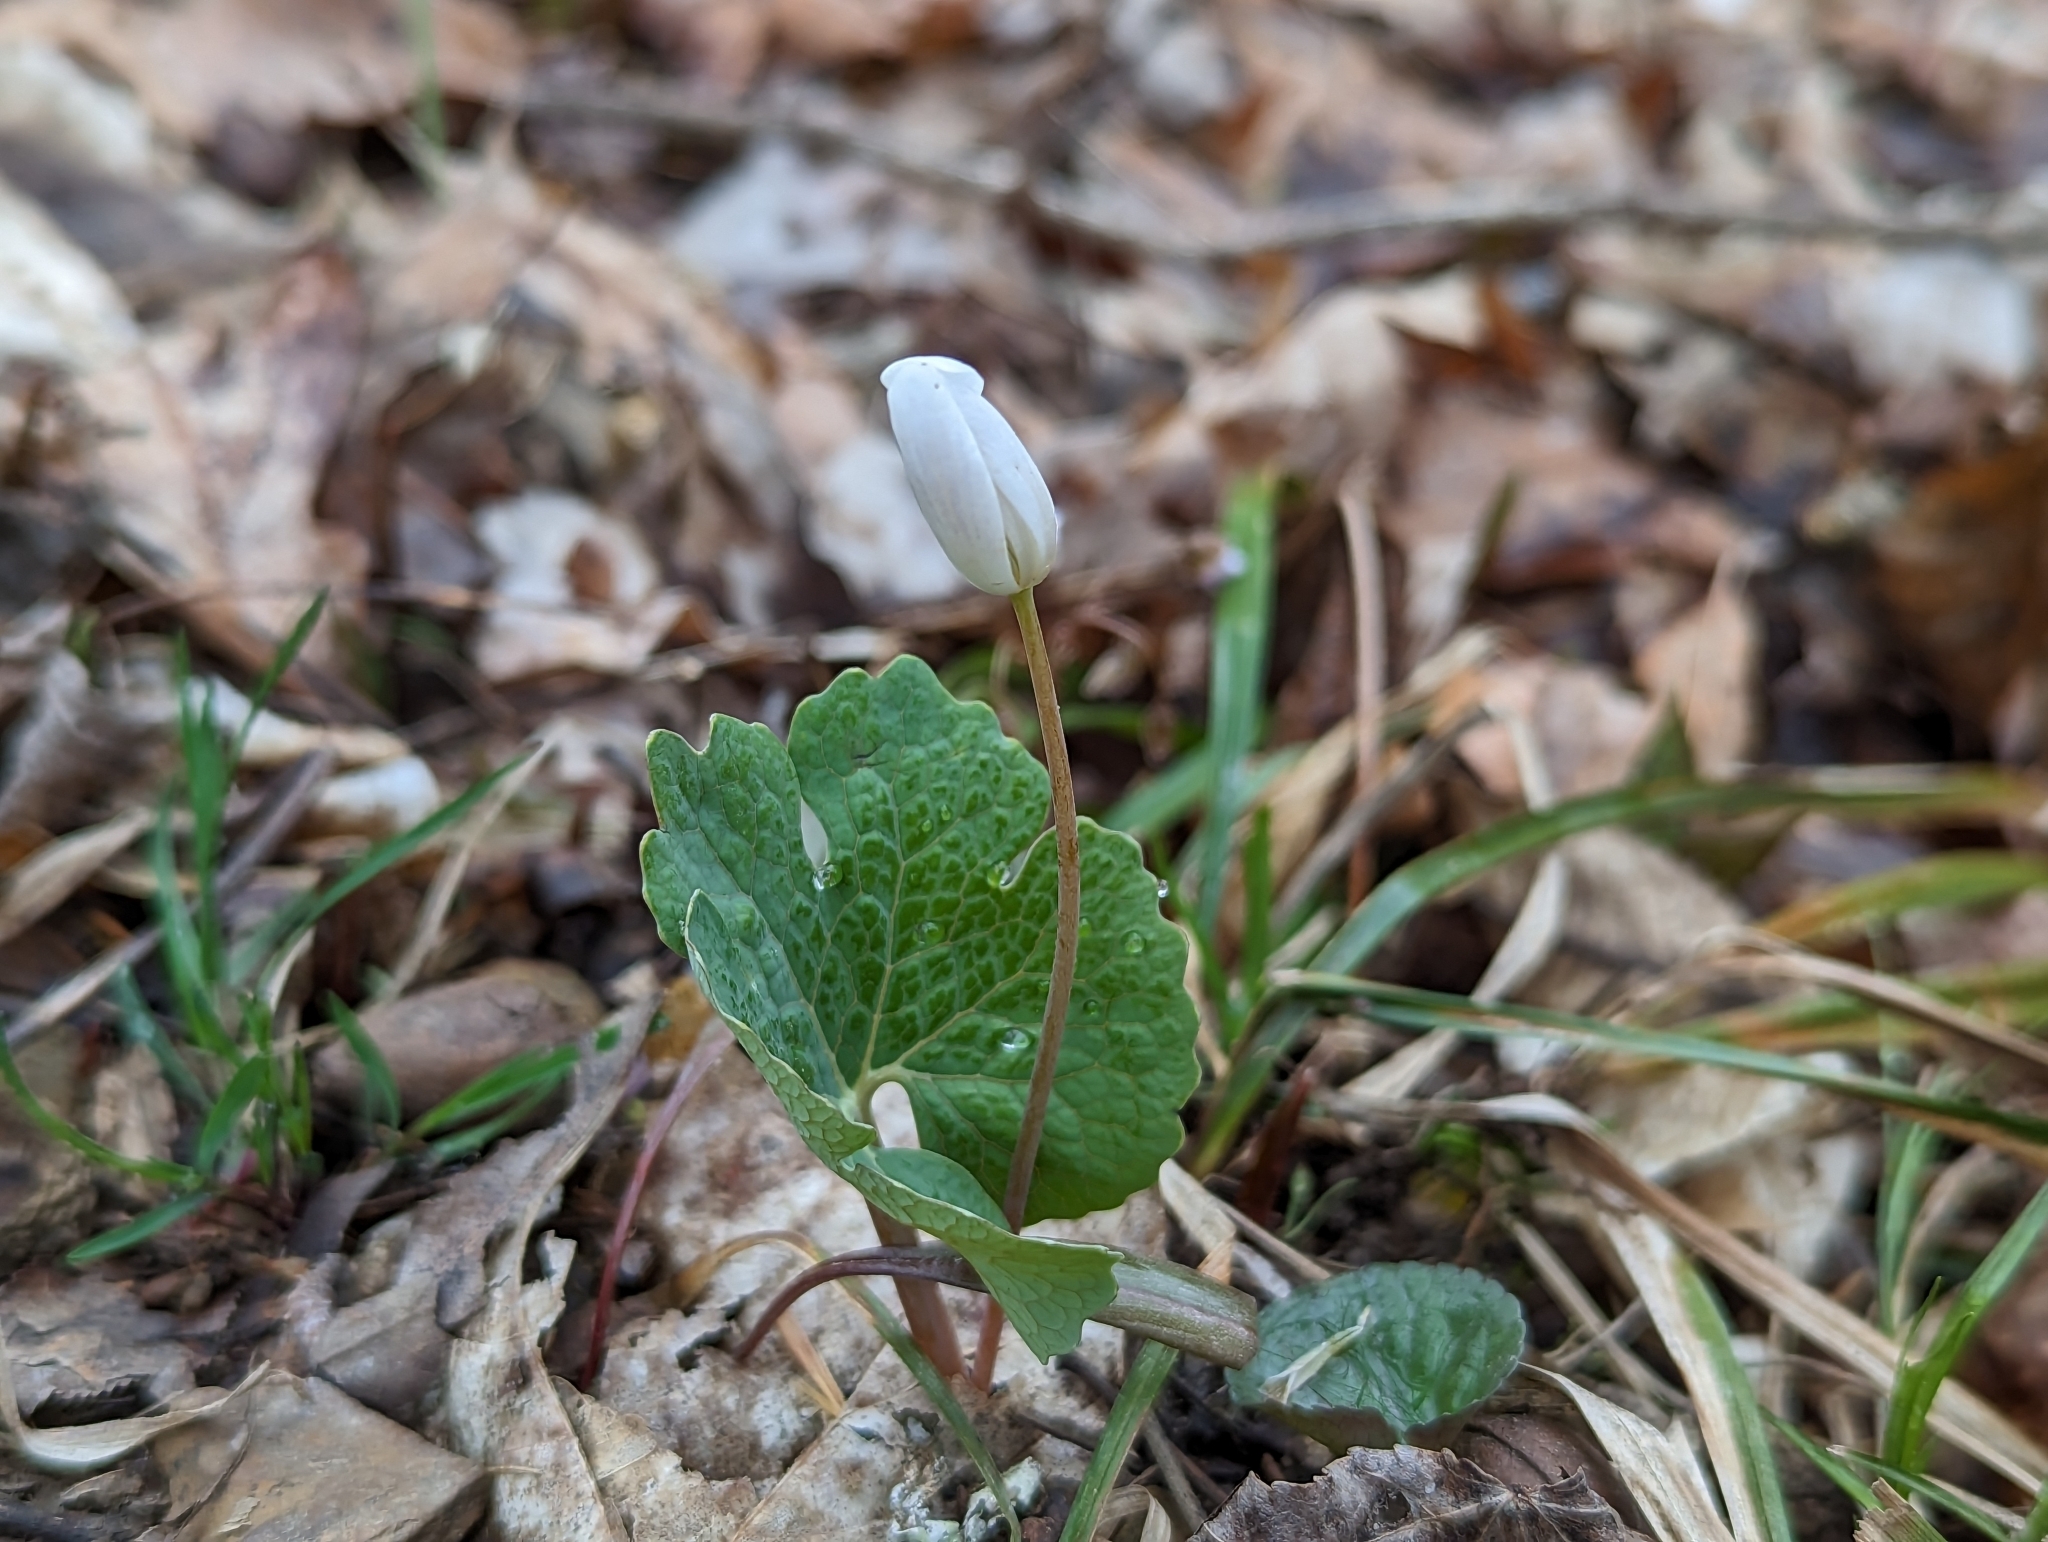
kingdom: Plantae
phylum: Tracheophyta
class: Magnoliopsida
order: Ranunculales
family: Papaveraceae
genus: Sanguinaria
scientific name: Sanguinaria canadensis
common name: Bloodroot
